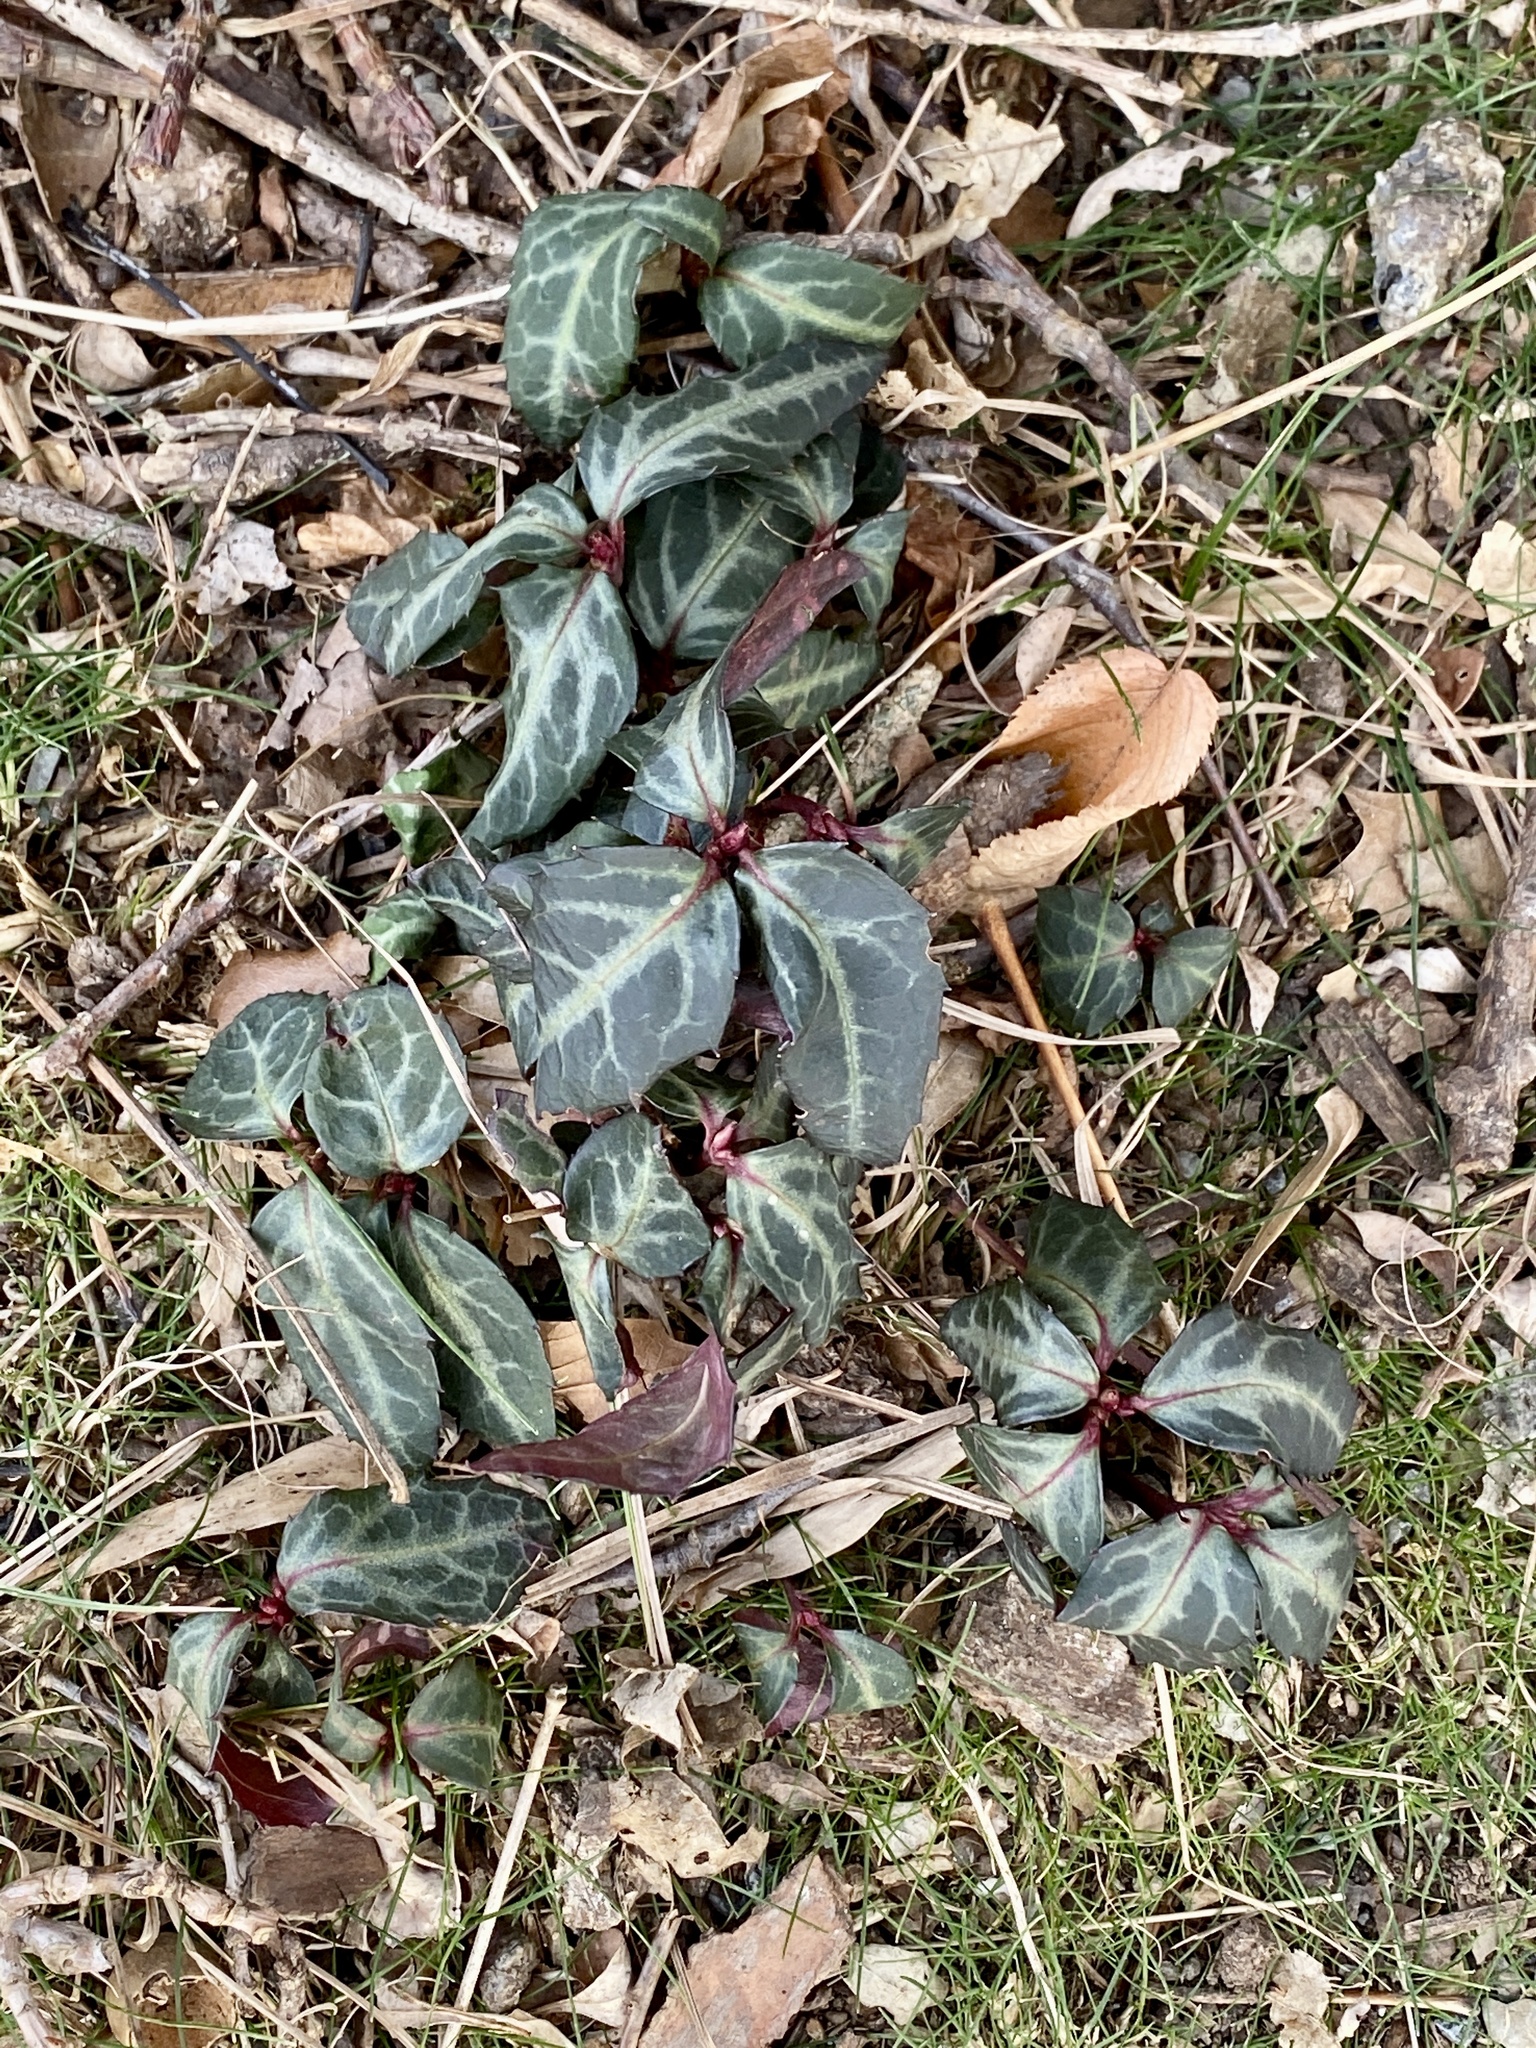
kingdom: Plantae
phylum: Tracheophyta
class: Magnoliopsida
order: Ericales
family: Ericaceae
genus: Chimaphila
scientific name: Chimaphila maculata
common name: Spotted pipsissewa
